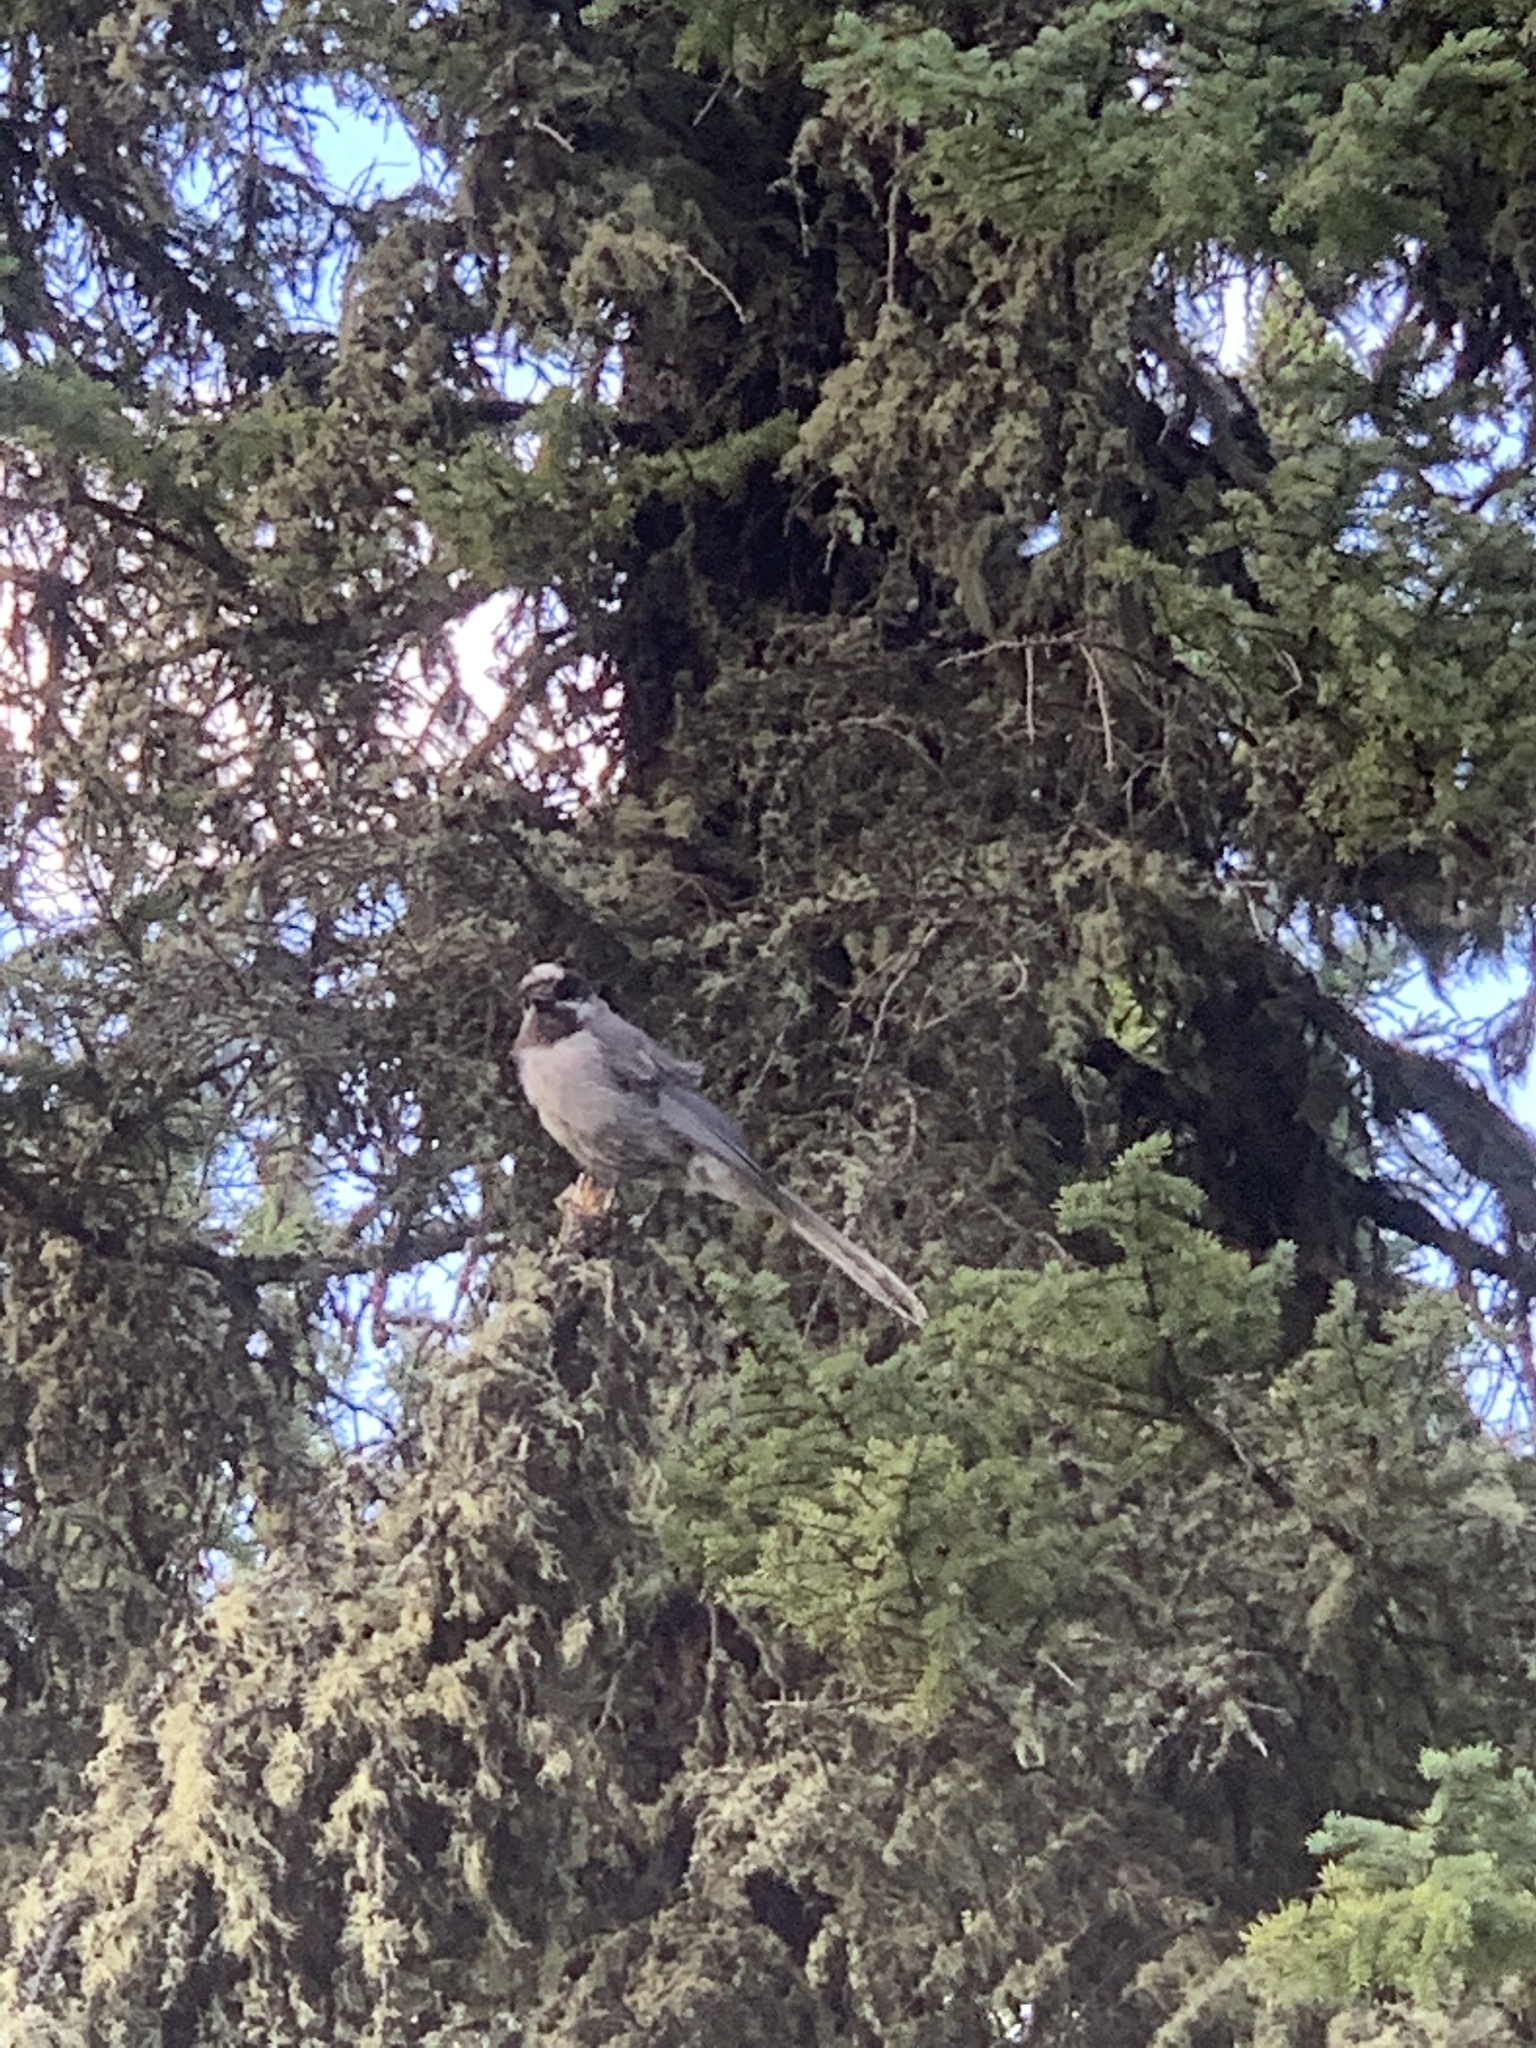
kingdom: Animalia
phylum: Chordata
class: Aves
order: Passeriformes
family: Corvidae
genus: Perisoreus
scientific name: Perisoreus canadensis
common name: Gray jay
